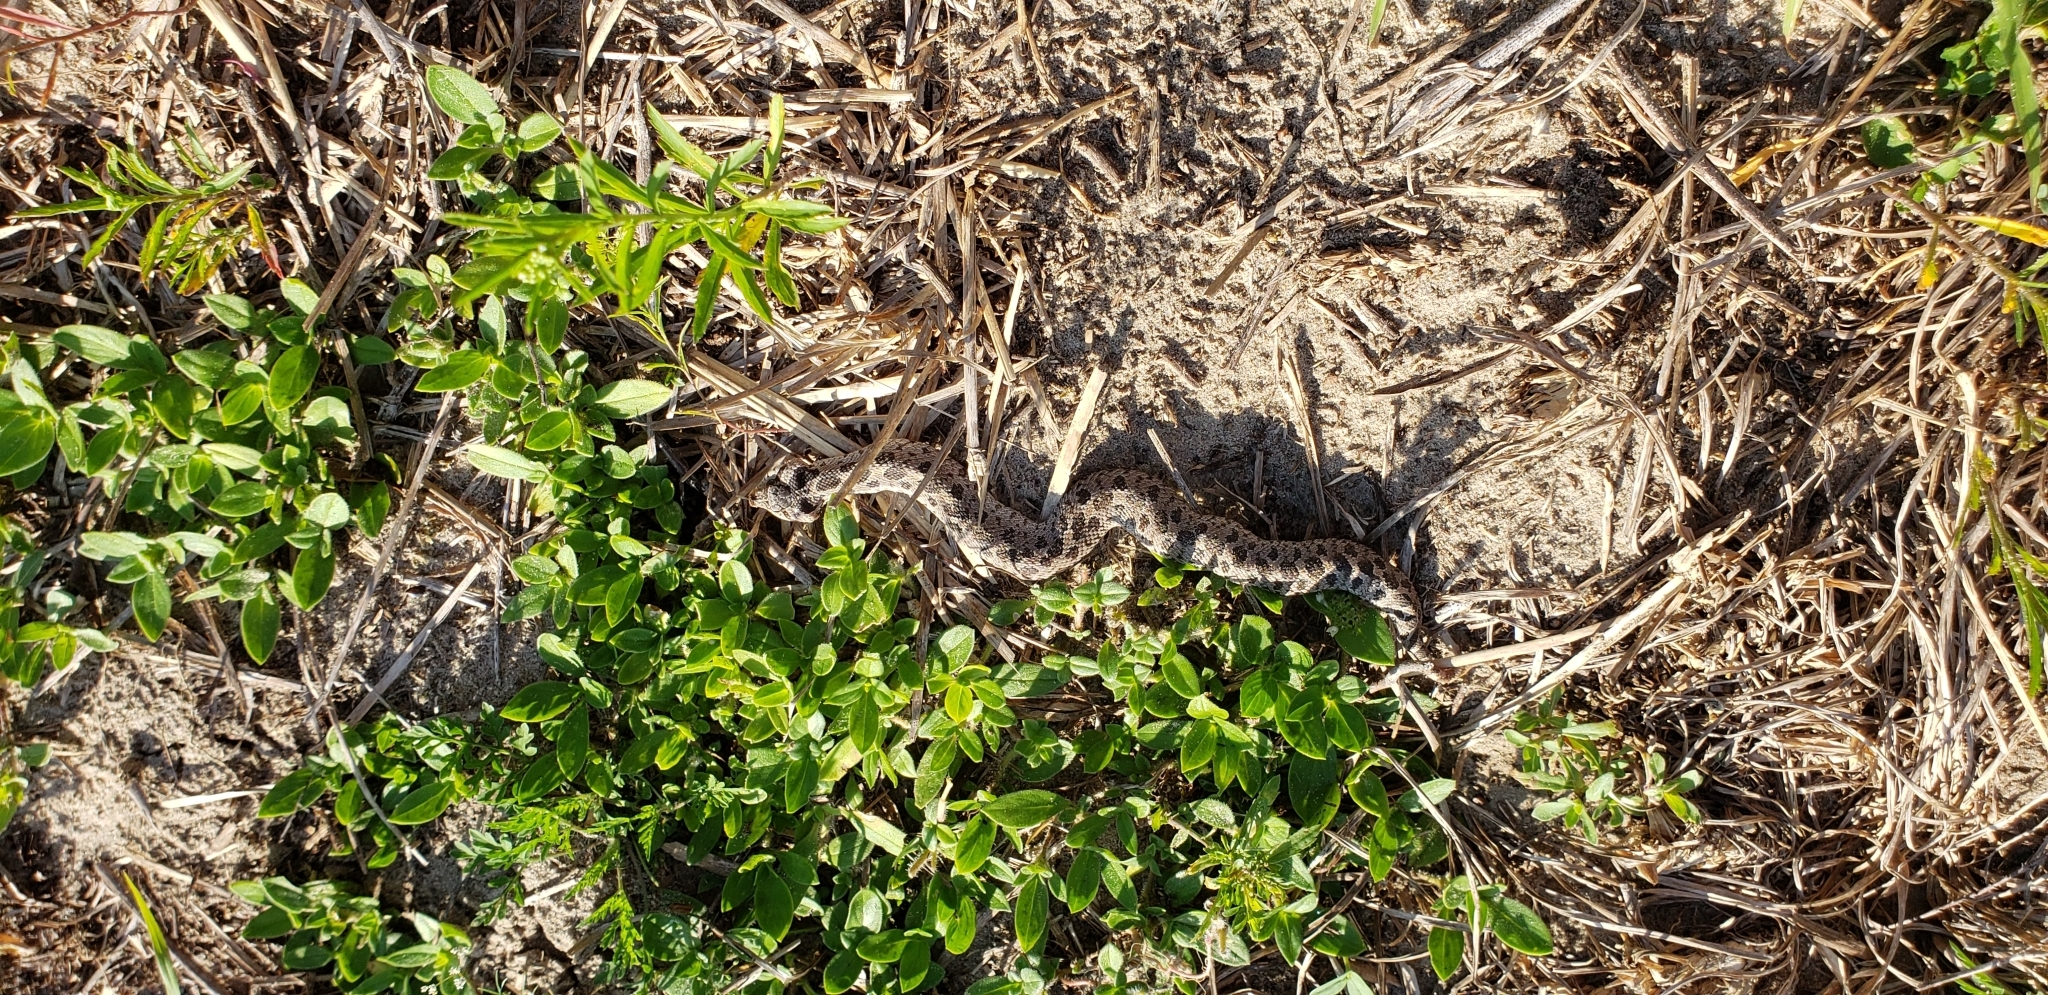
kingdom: Animalia
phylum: Chordata
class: Squamata
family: Colubridae
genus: Heterodon
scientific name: Heterodon simus
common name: Southern hognose snake
